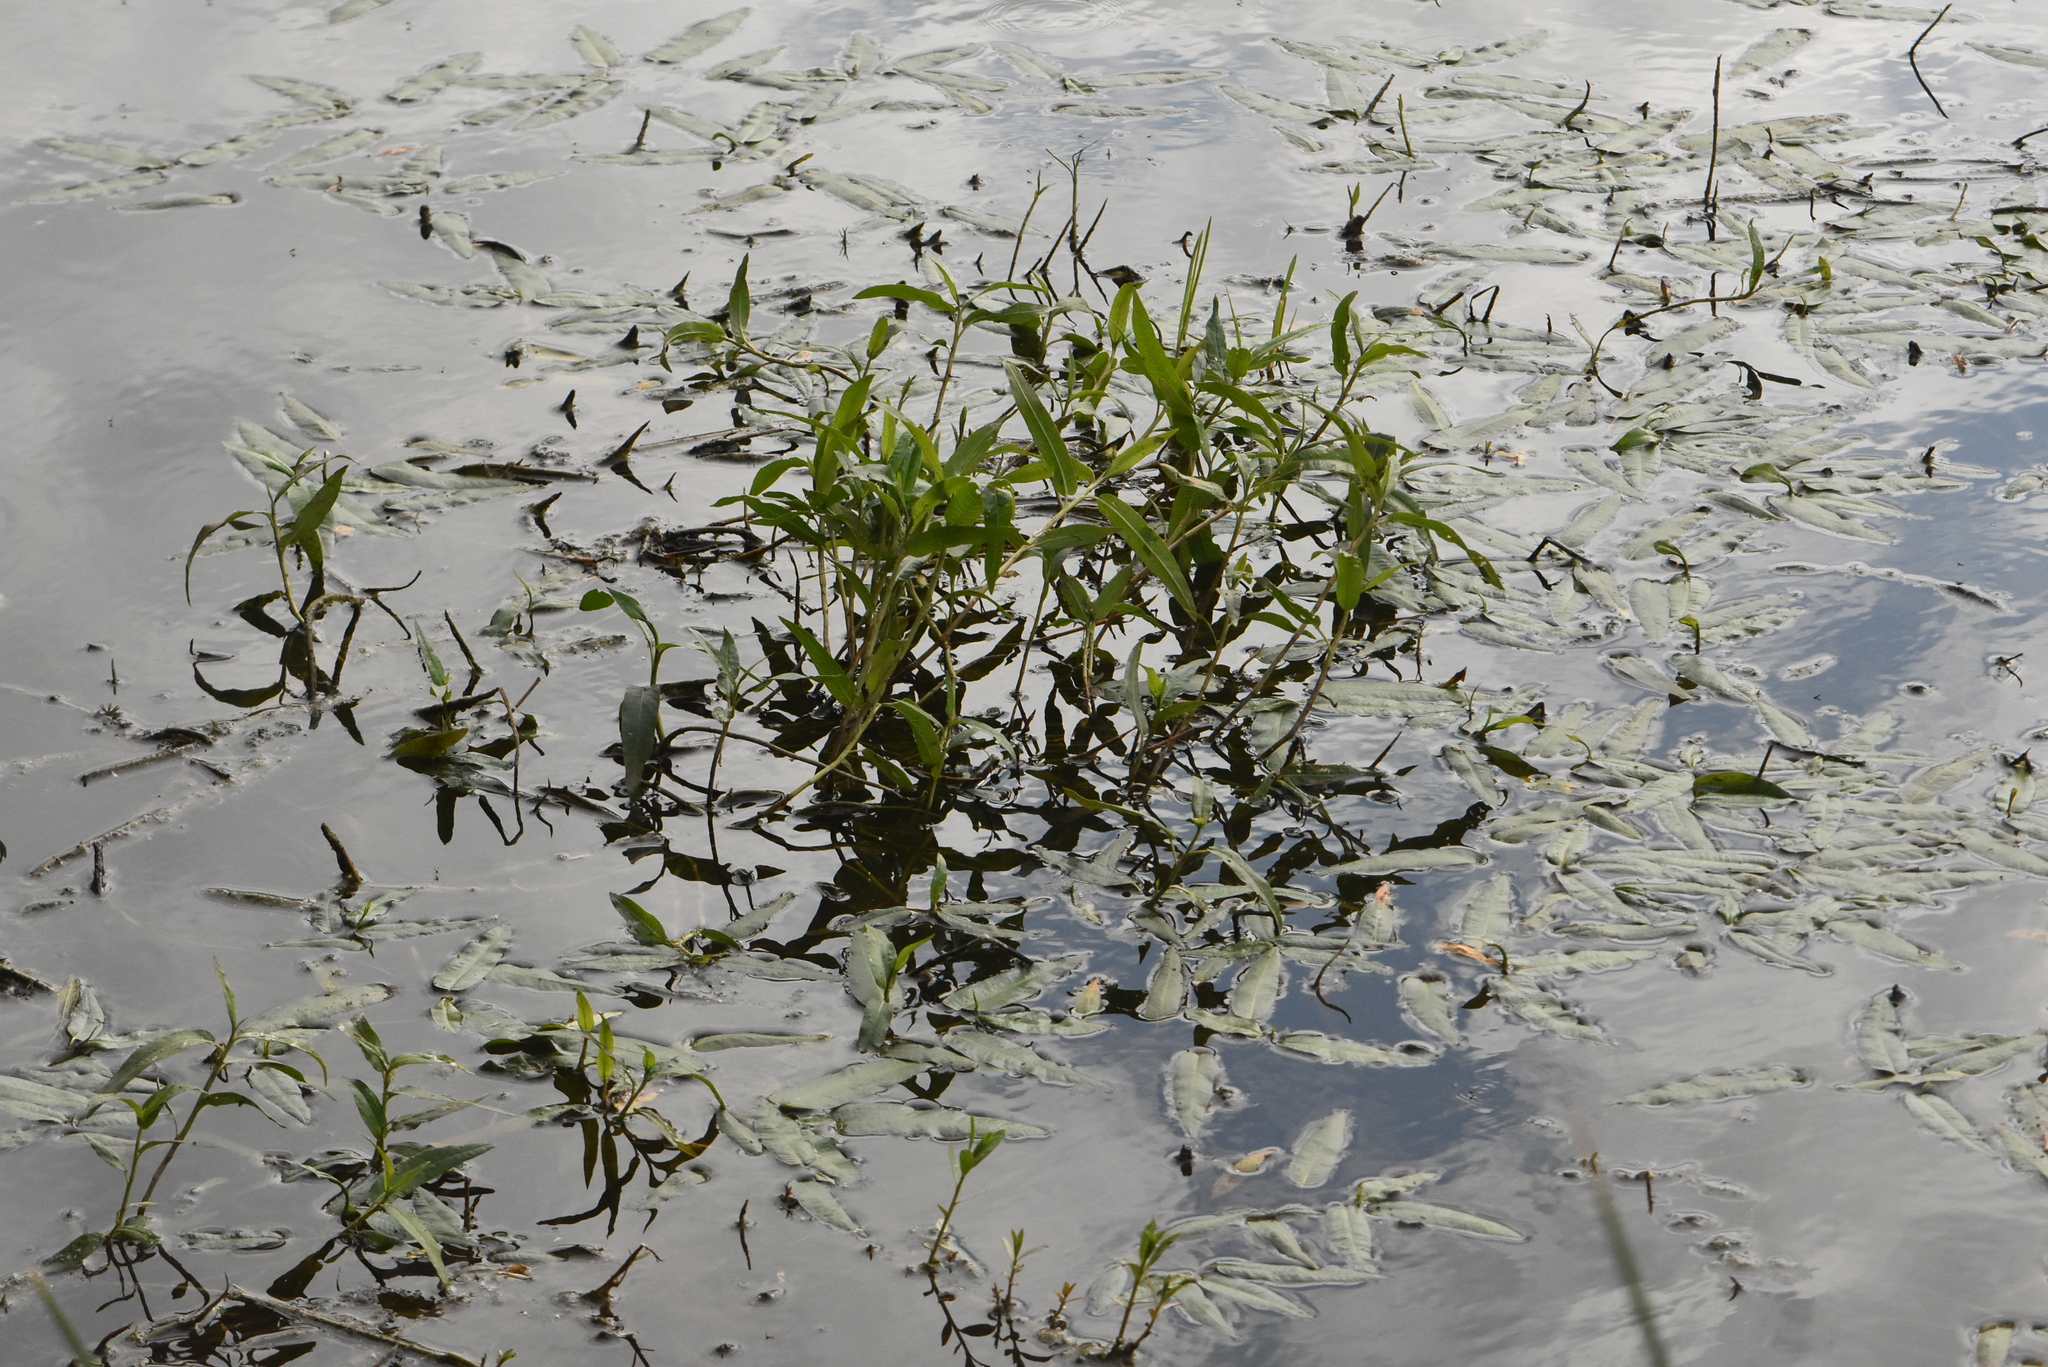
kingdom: Plantae
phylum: Tracheophyta
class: Magnoliopsida
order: Caryophyllales
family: Polygonaceae
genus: Persicaria
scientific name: Persicaria amphibia
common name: Amphibious bistort
